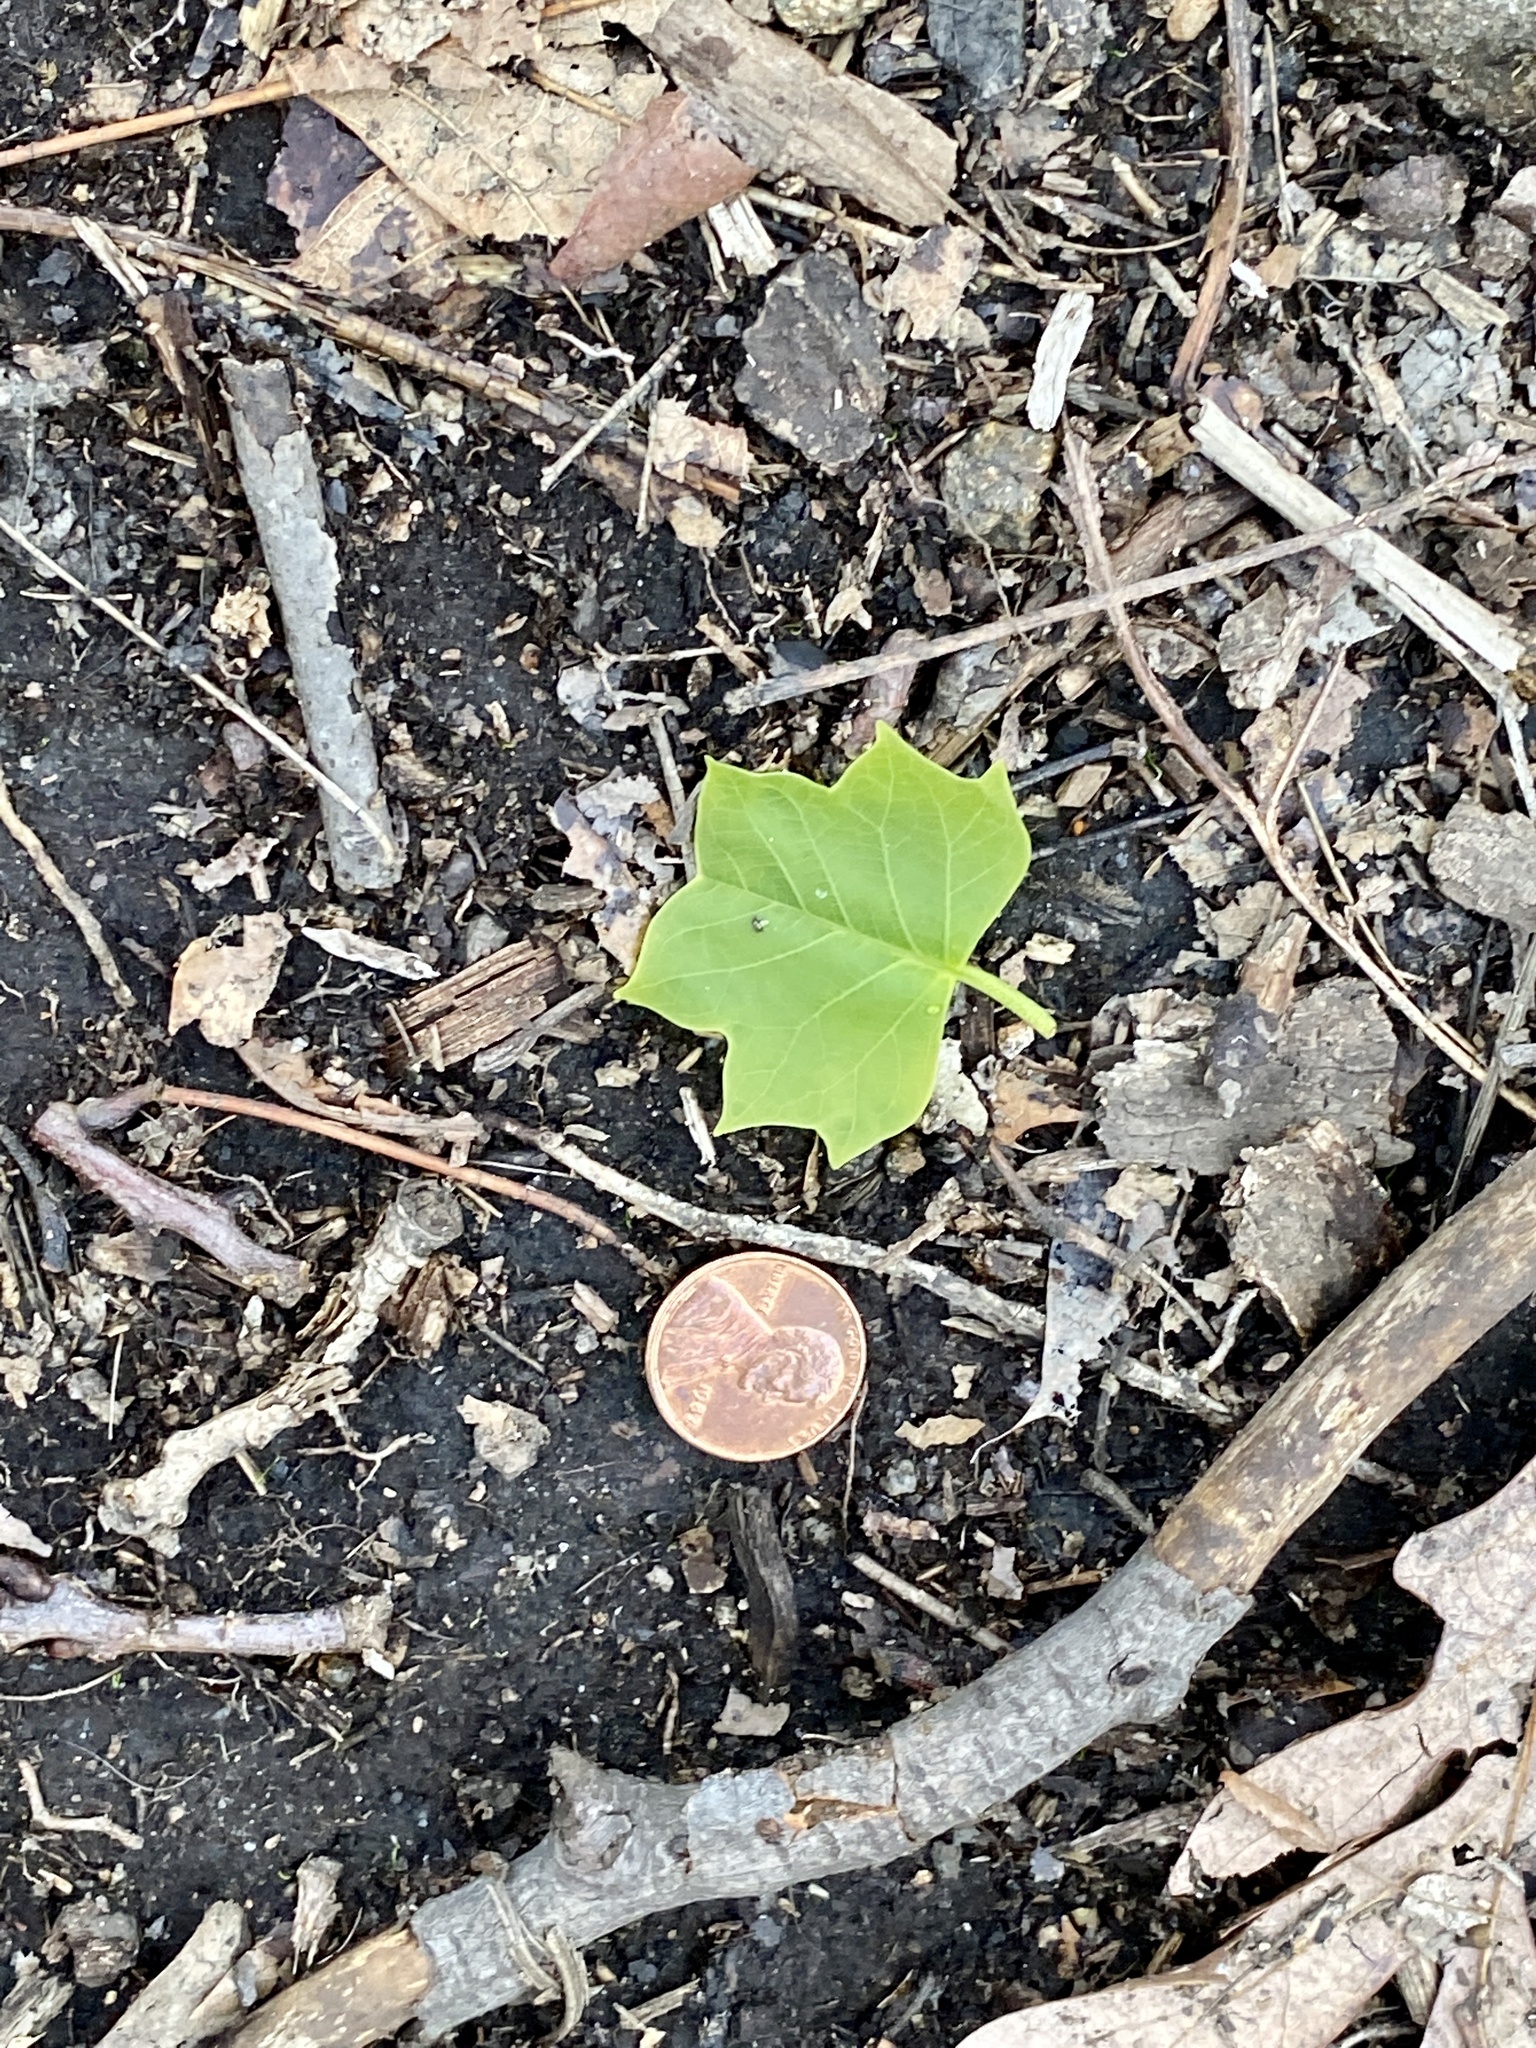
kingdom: Plantae
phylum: Tracheophyta
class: Magnoliopsida
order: Magnoliales
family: Magnoliaceae
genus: Liriodendron
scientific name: Liriodendron tulipifera
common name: Tulip tree
